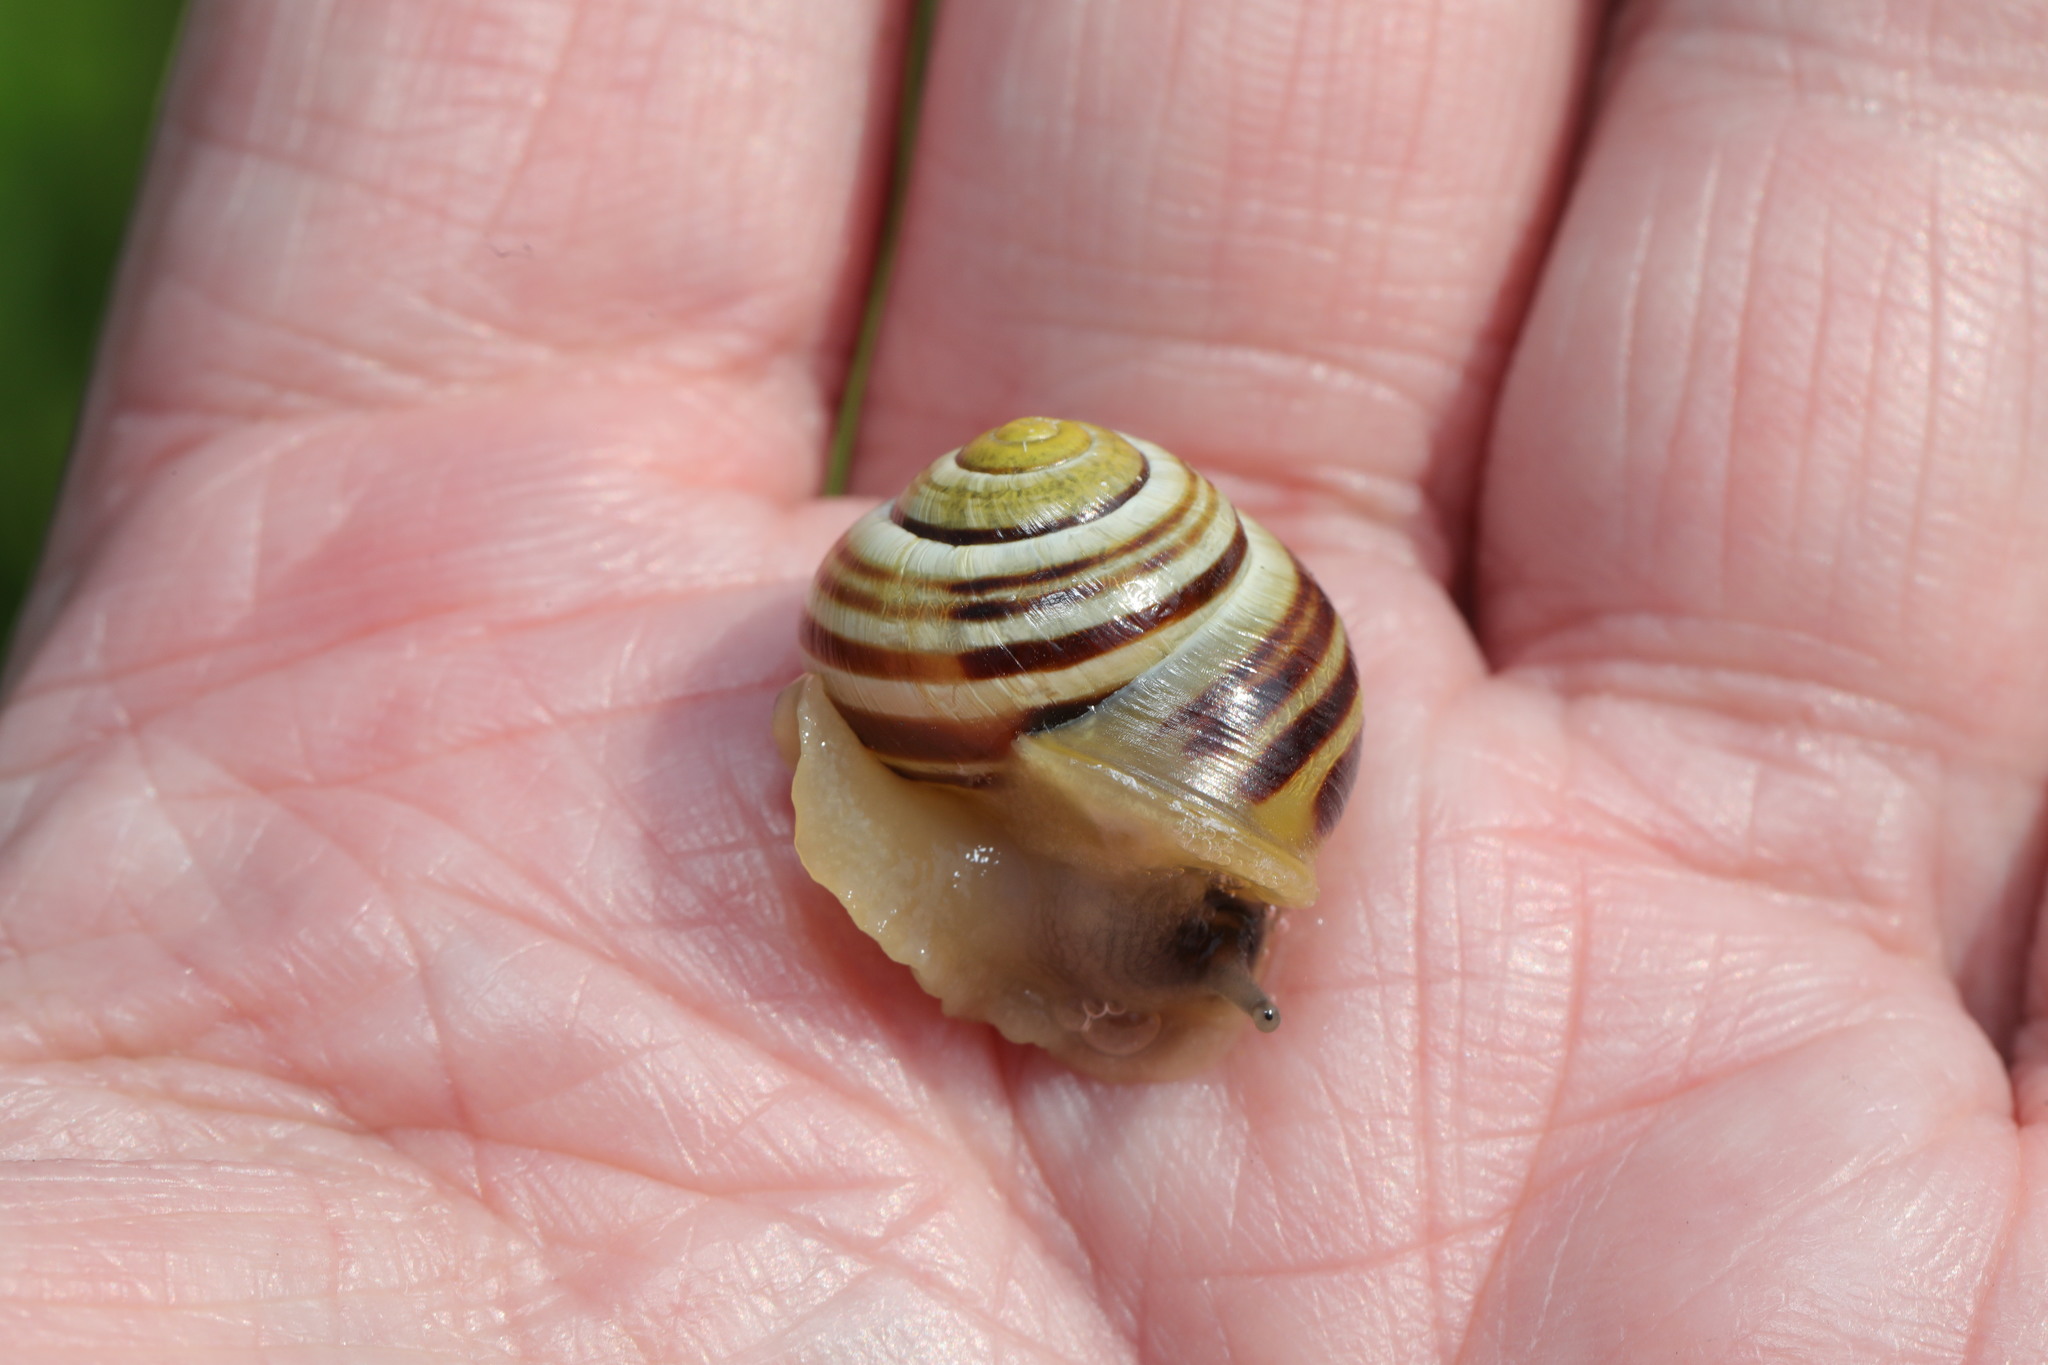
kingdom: Animalia
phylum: Mollusca
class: Gastropoda
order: Stylommatophora
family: Helicidae
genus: Cepaea
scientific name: Cepaea hortensis
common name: White-lip gardensnail
